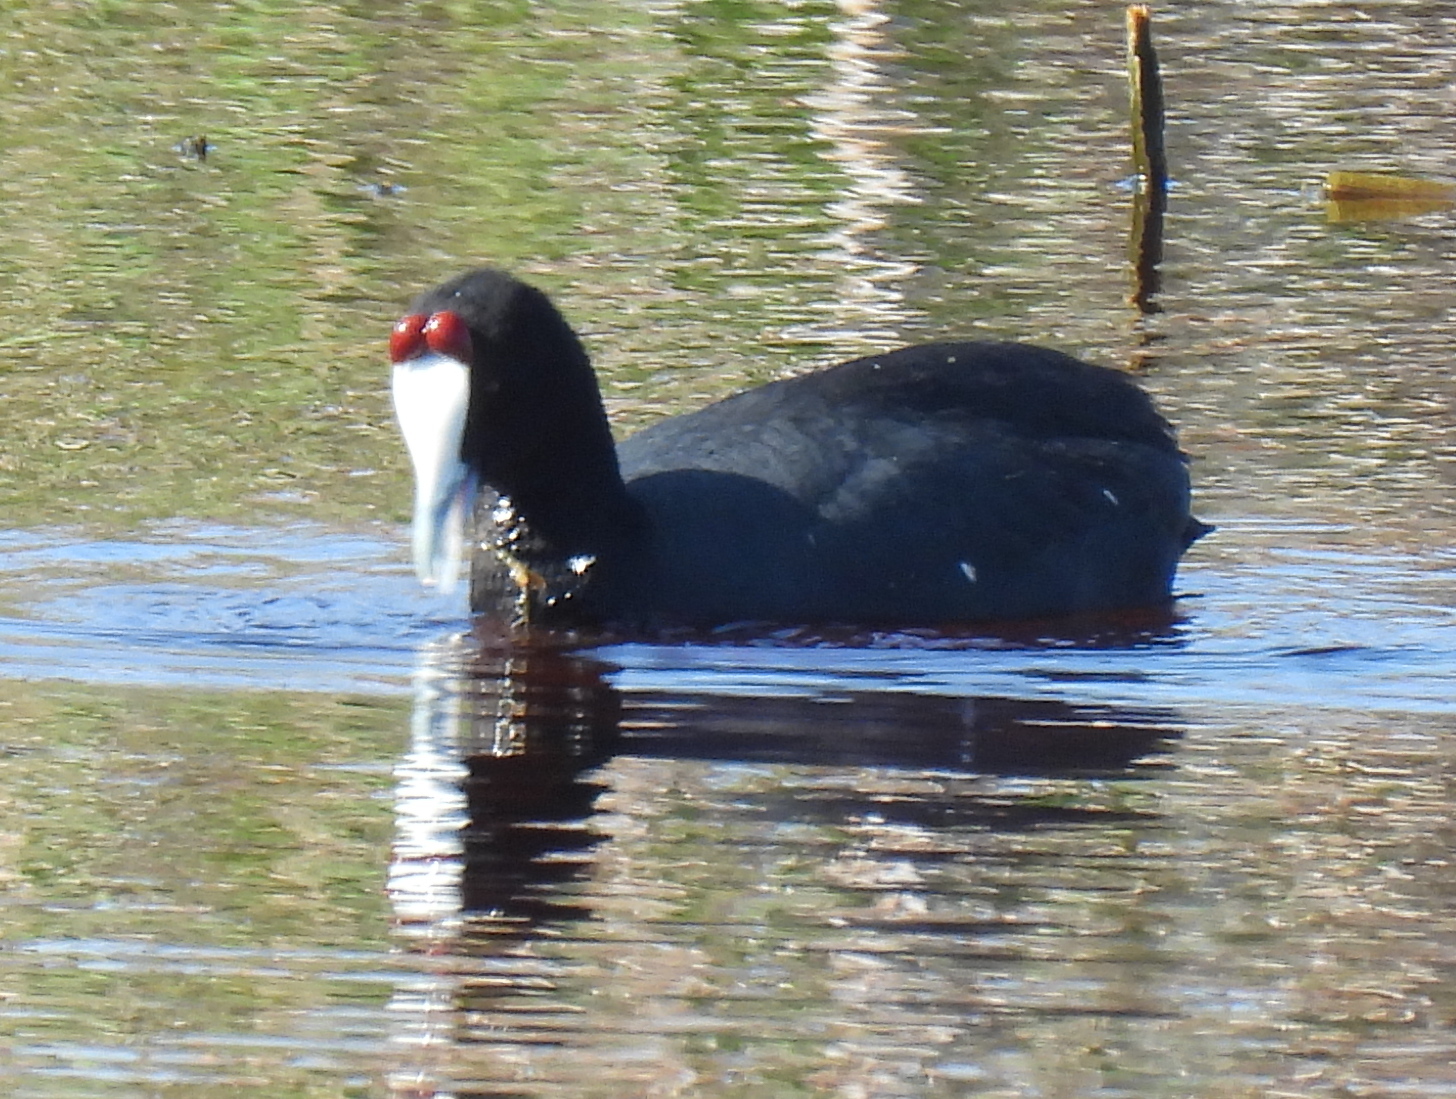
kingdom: Animalia
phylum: Chordata
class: Aves
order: Gruiformes
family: Rallidae
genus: Fulica
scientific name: Fulica cristata
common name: Red-knobbed coot
